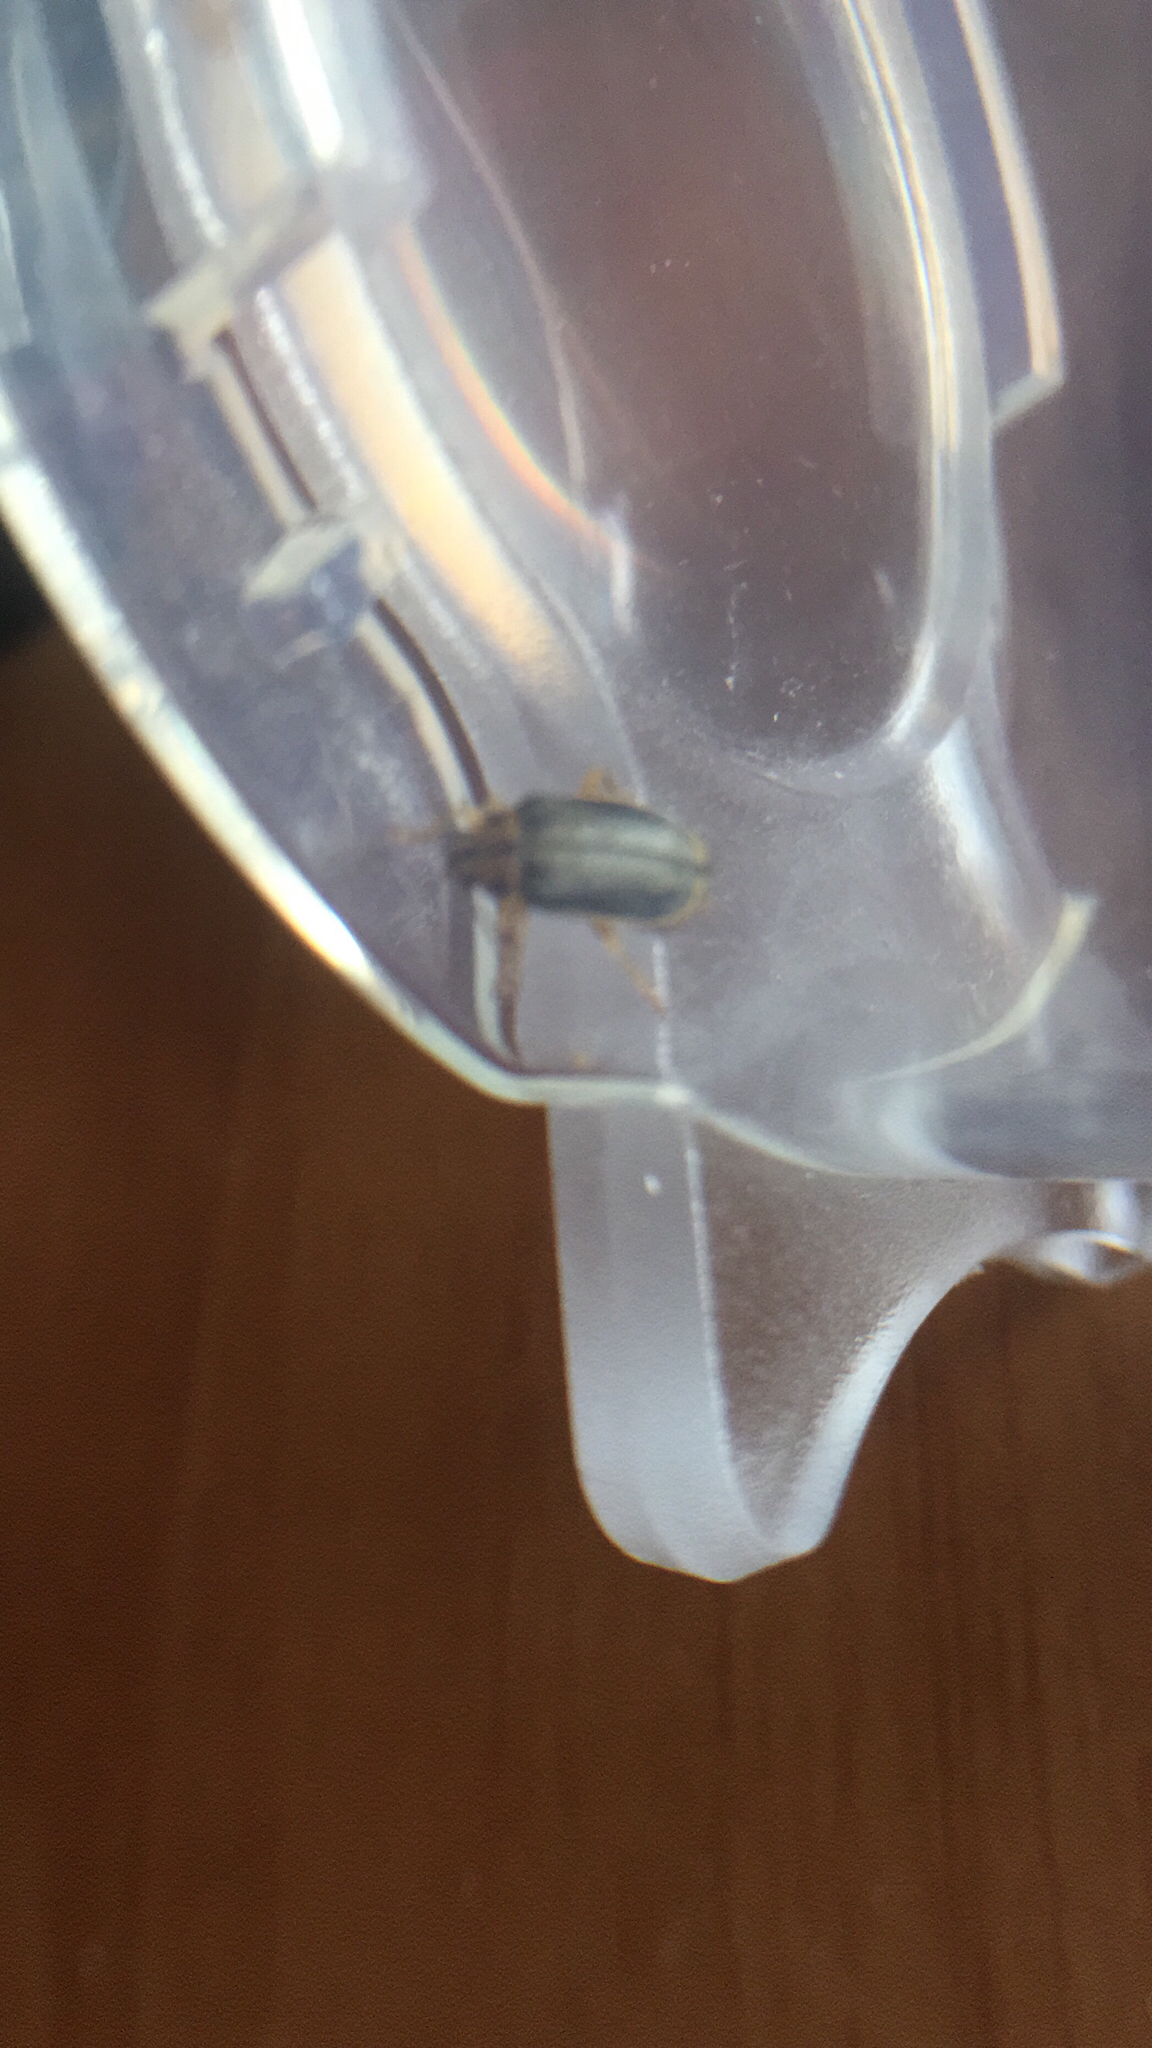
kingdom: Animalia
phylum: Arthropoda
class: Insecta
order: Coleoptera
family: Chrysomelidae
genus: Xanthogaleruca
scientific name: Xanthogaleruca luteola
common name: Elm leaf beetle
